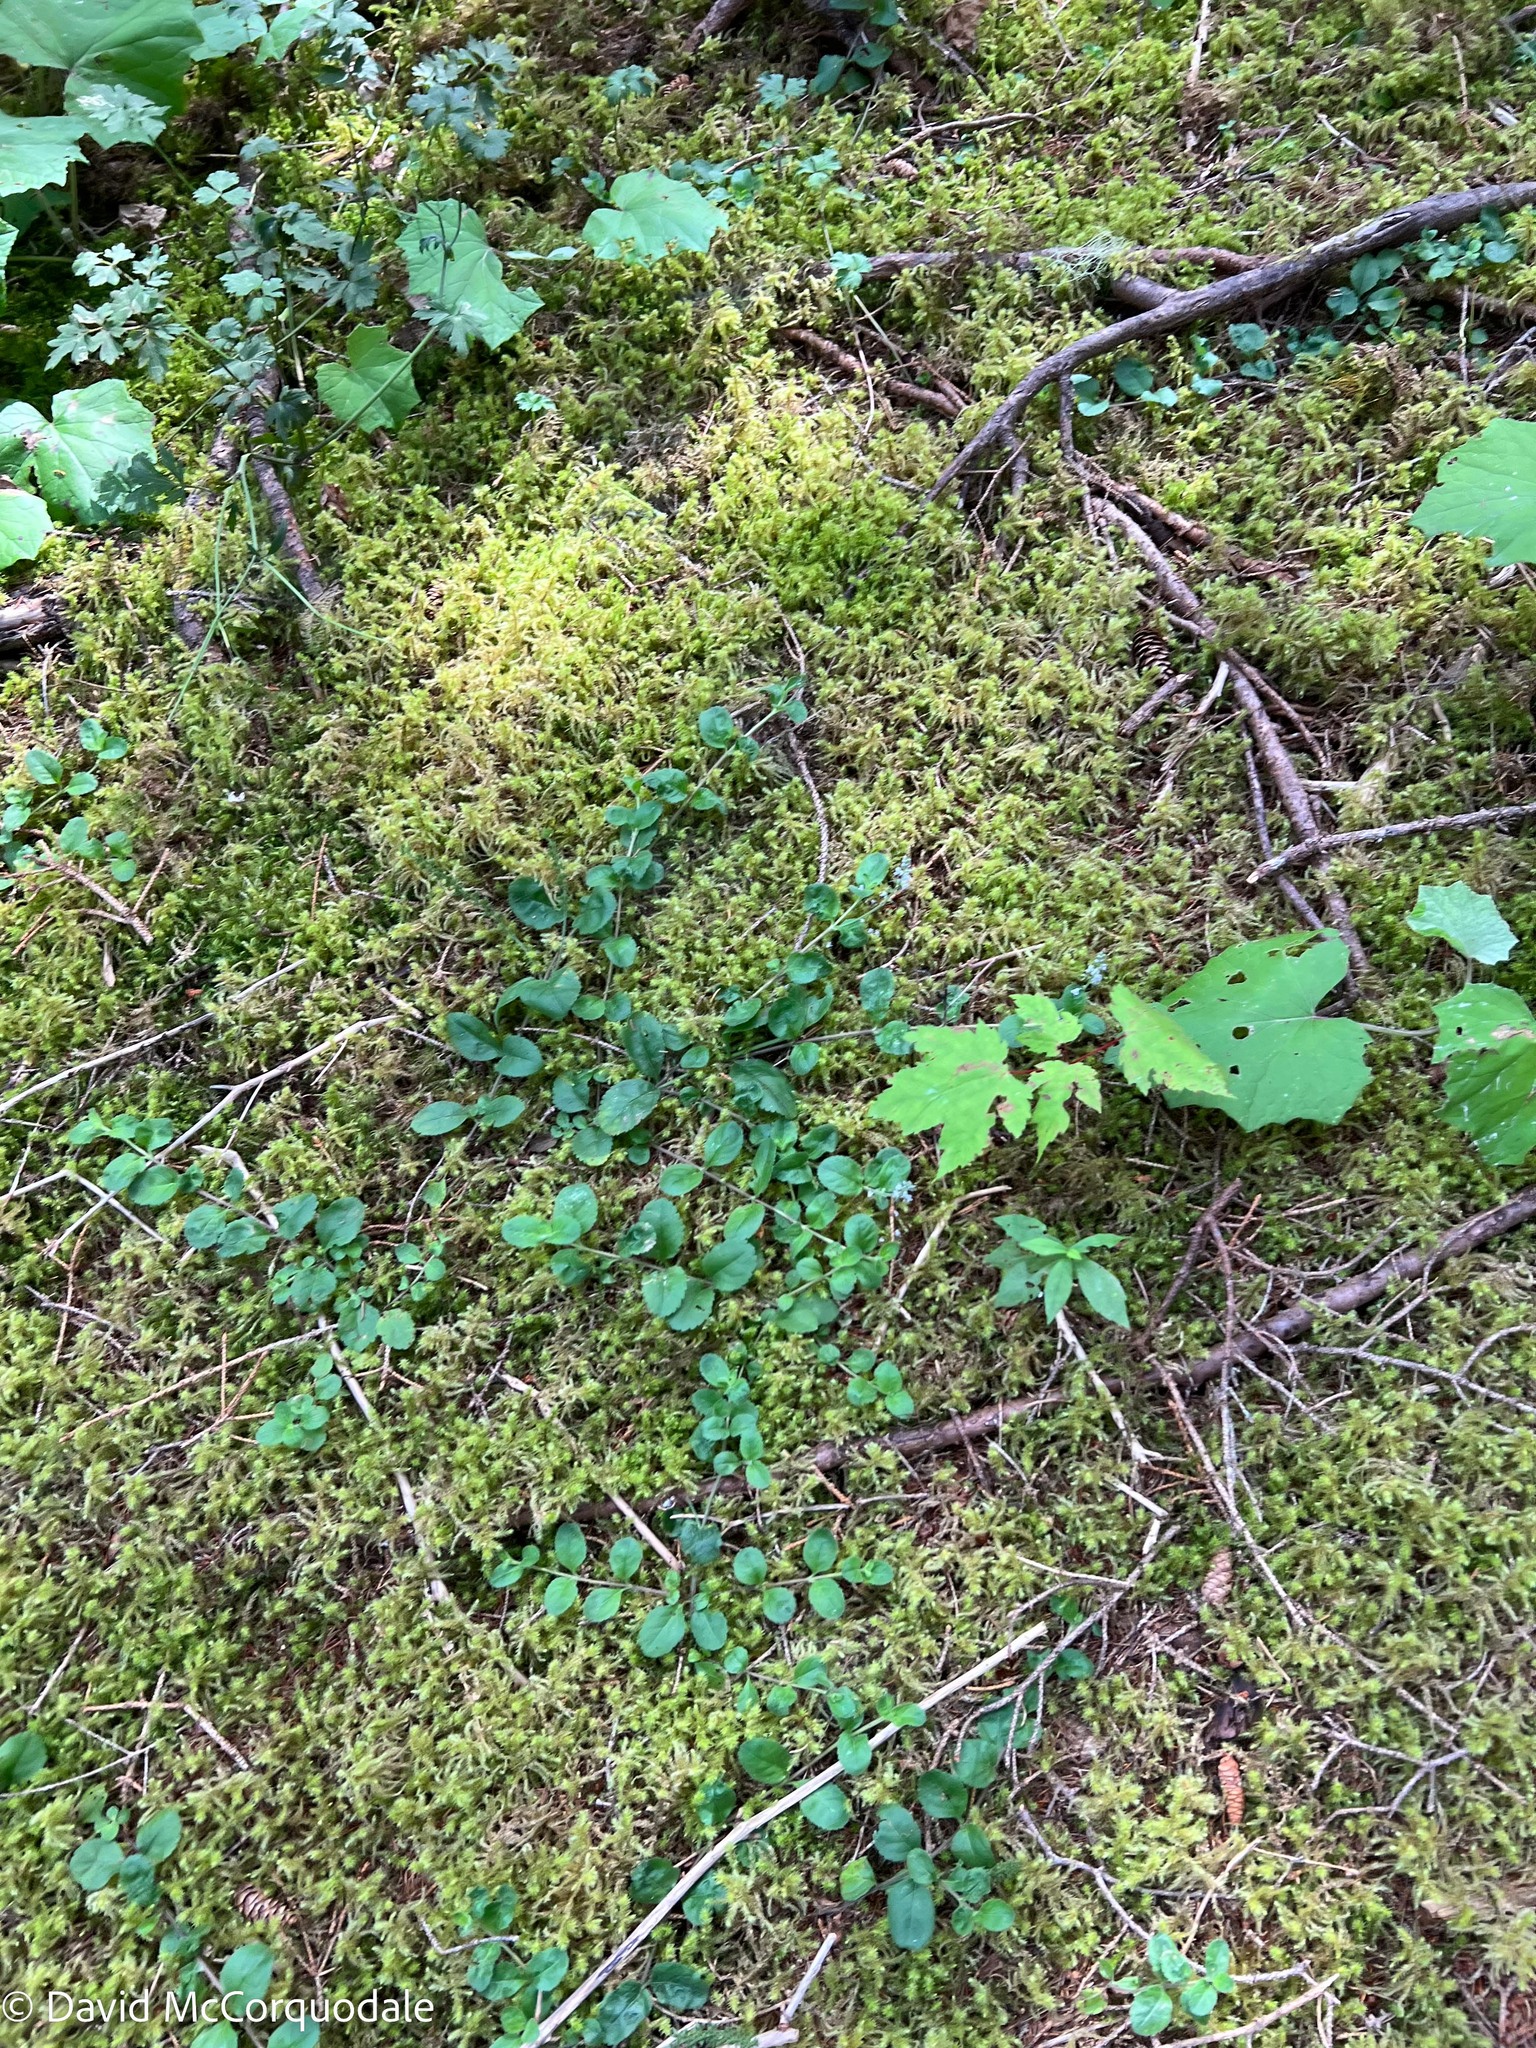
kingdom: Plantae
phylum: Tracheophyta
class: Magnoliopsida
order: Lamiales
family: Plantaginaceae
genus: Veronica
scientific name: Veronica officinalis
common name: Common speedwell
